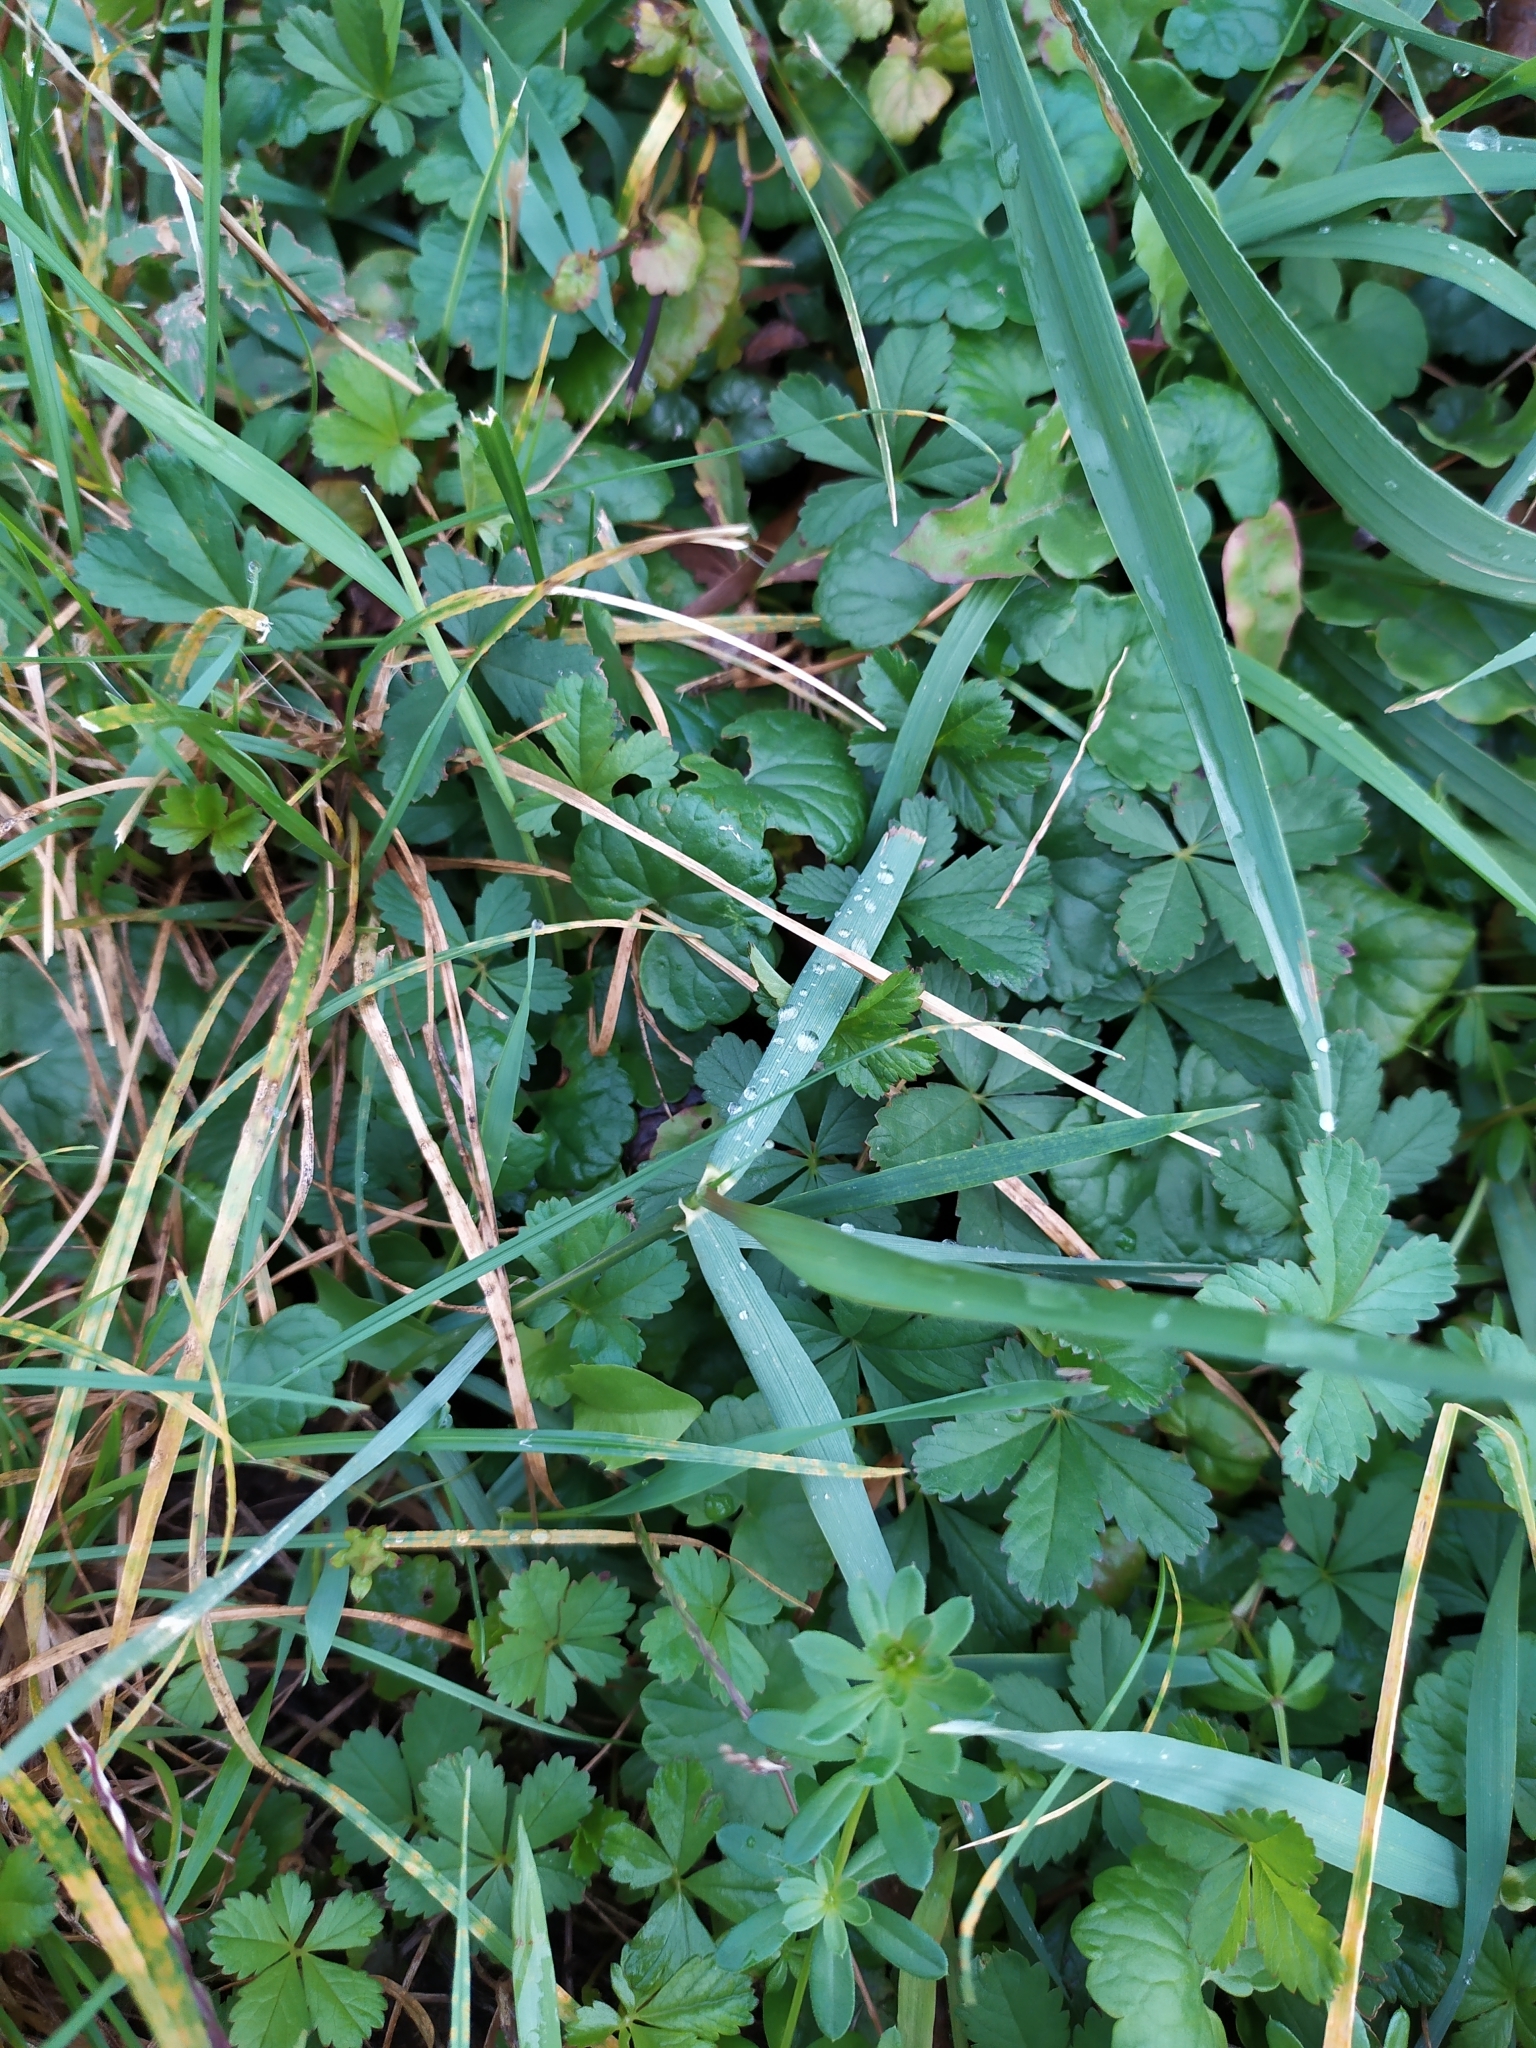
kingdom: Plantae
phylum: Tracheophyta
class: Magnoliopsida
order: Rosales
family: Rosaceae
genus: Potentilla
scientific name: Potentilla reptans
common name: Creeping cinquefoil
